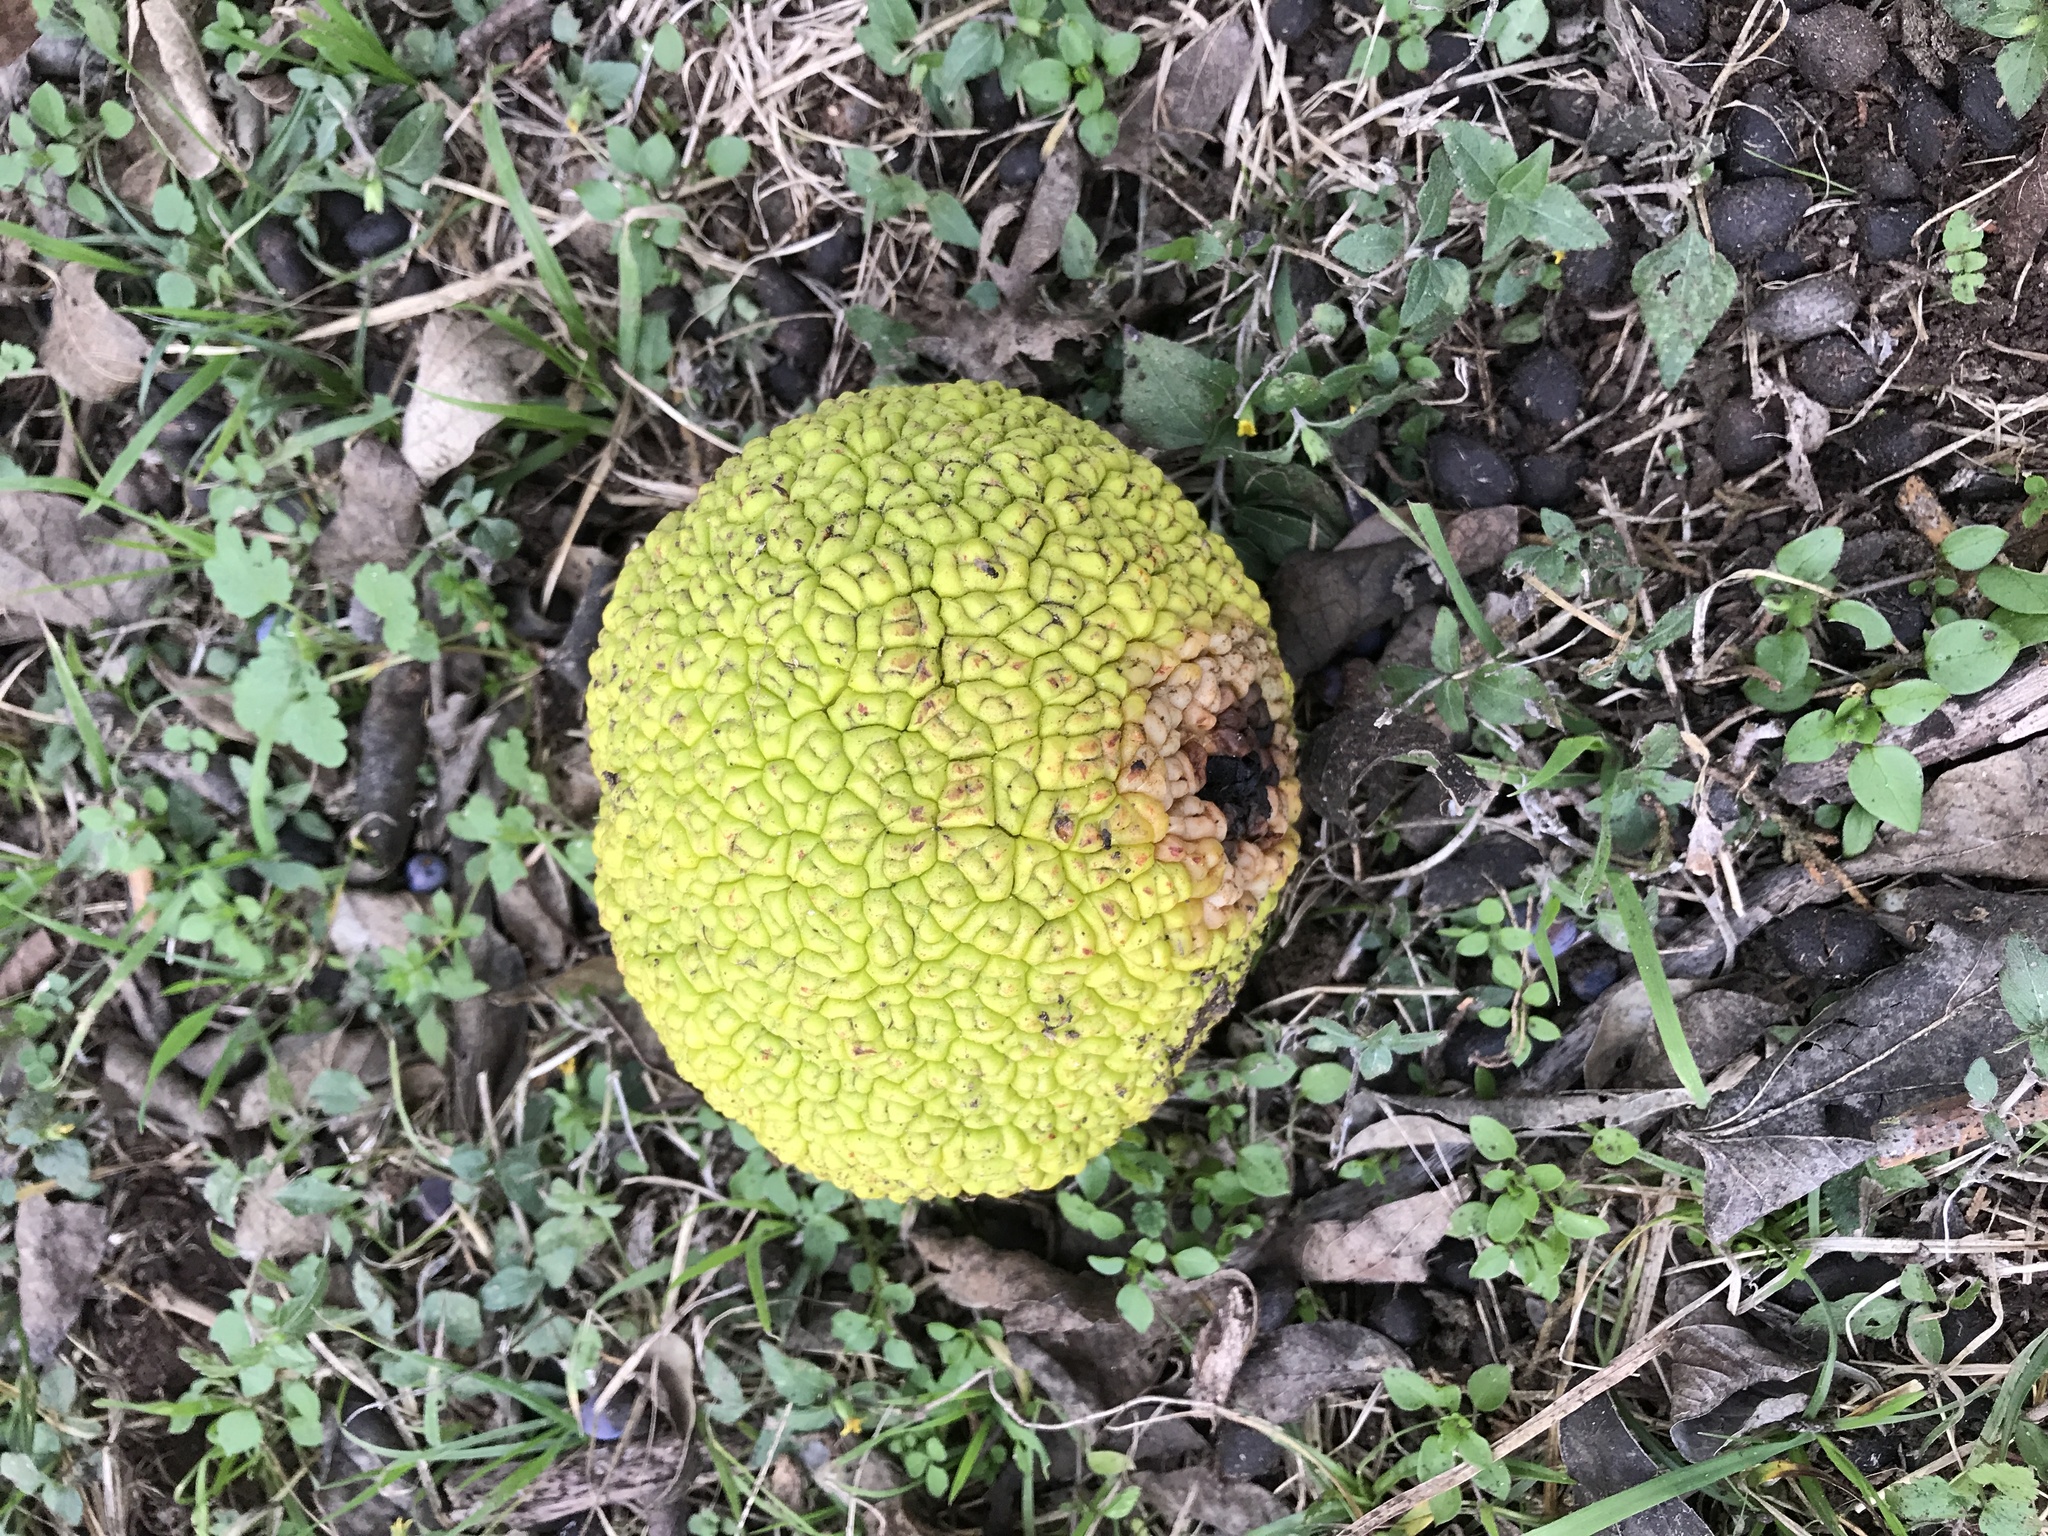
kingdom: Plantae
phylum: Tracheophyta
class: Magnoliopsida
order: Rosales
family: Moraceae
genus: Maclura
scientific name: Maclura pomifera
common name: Osage-orange
